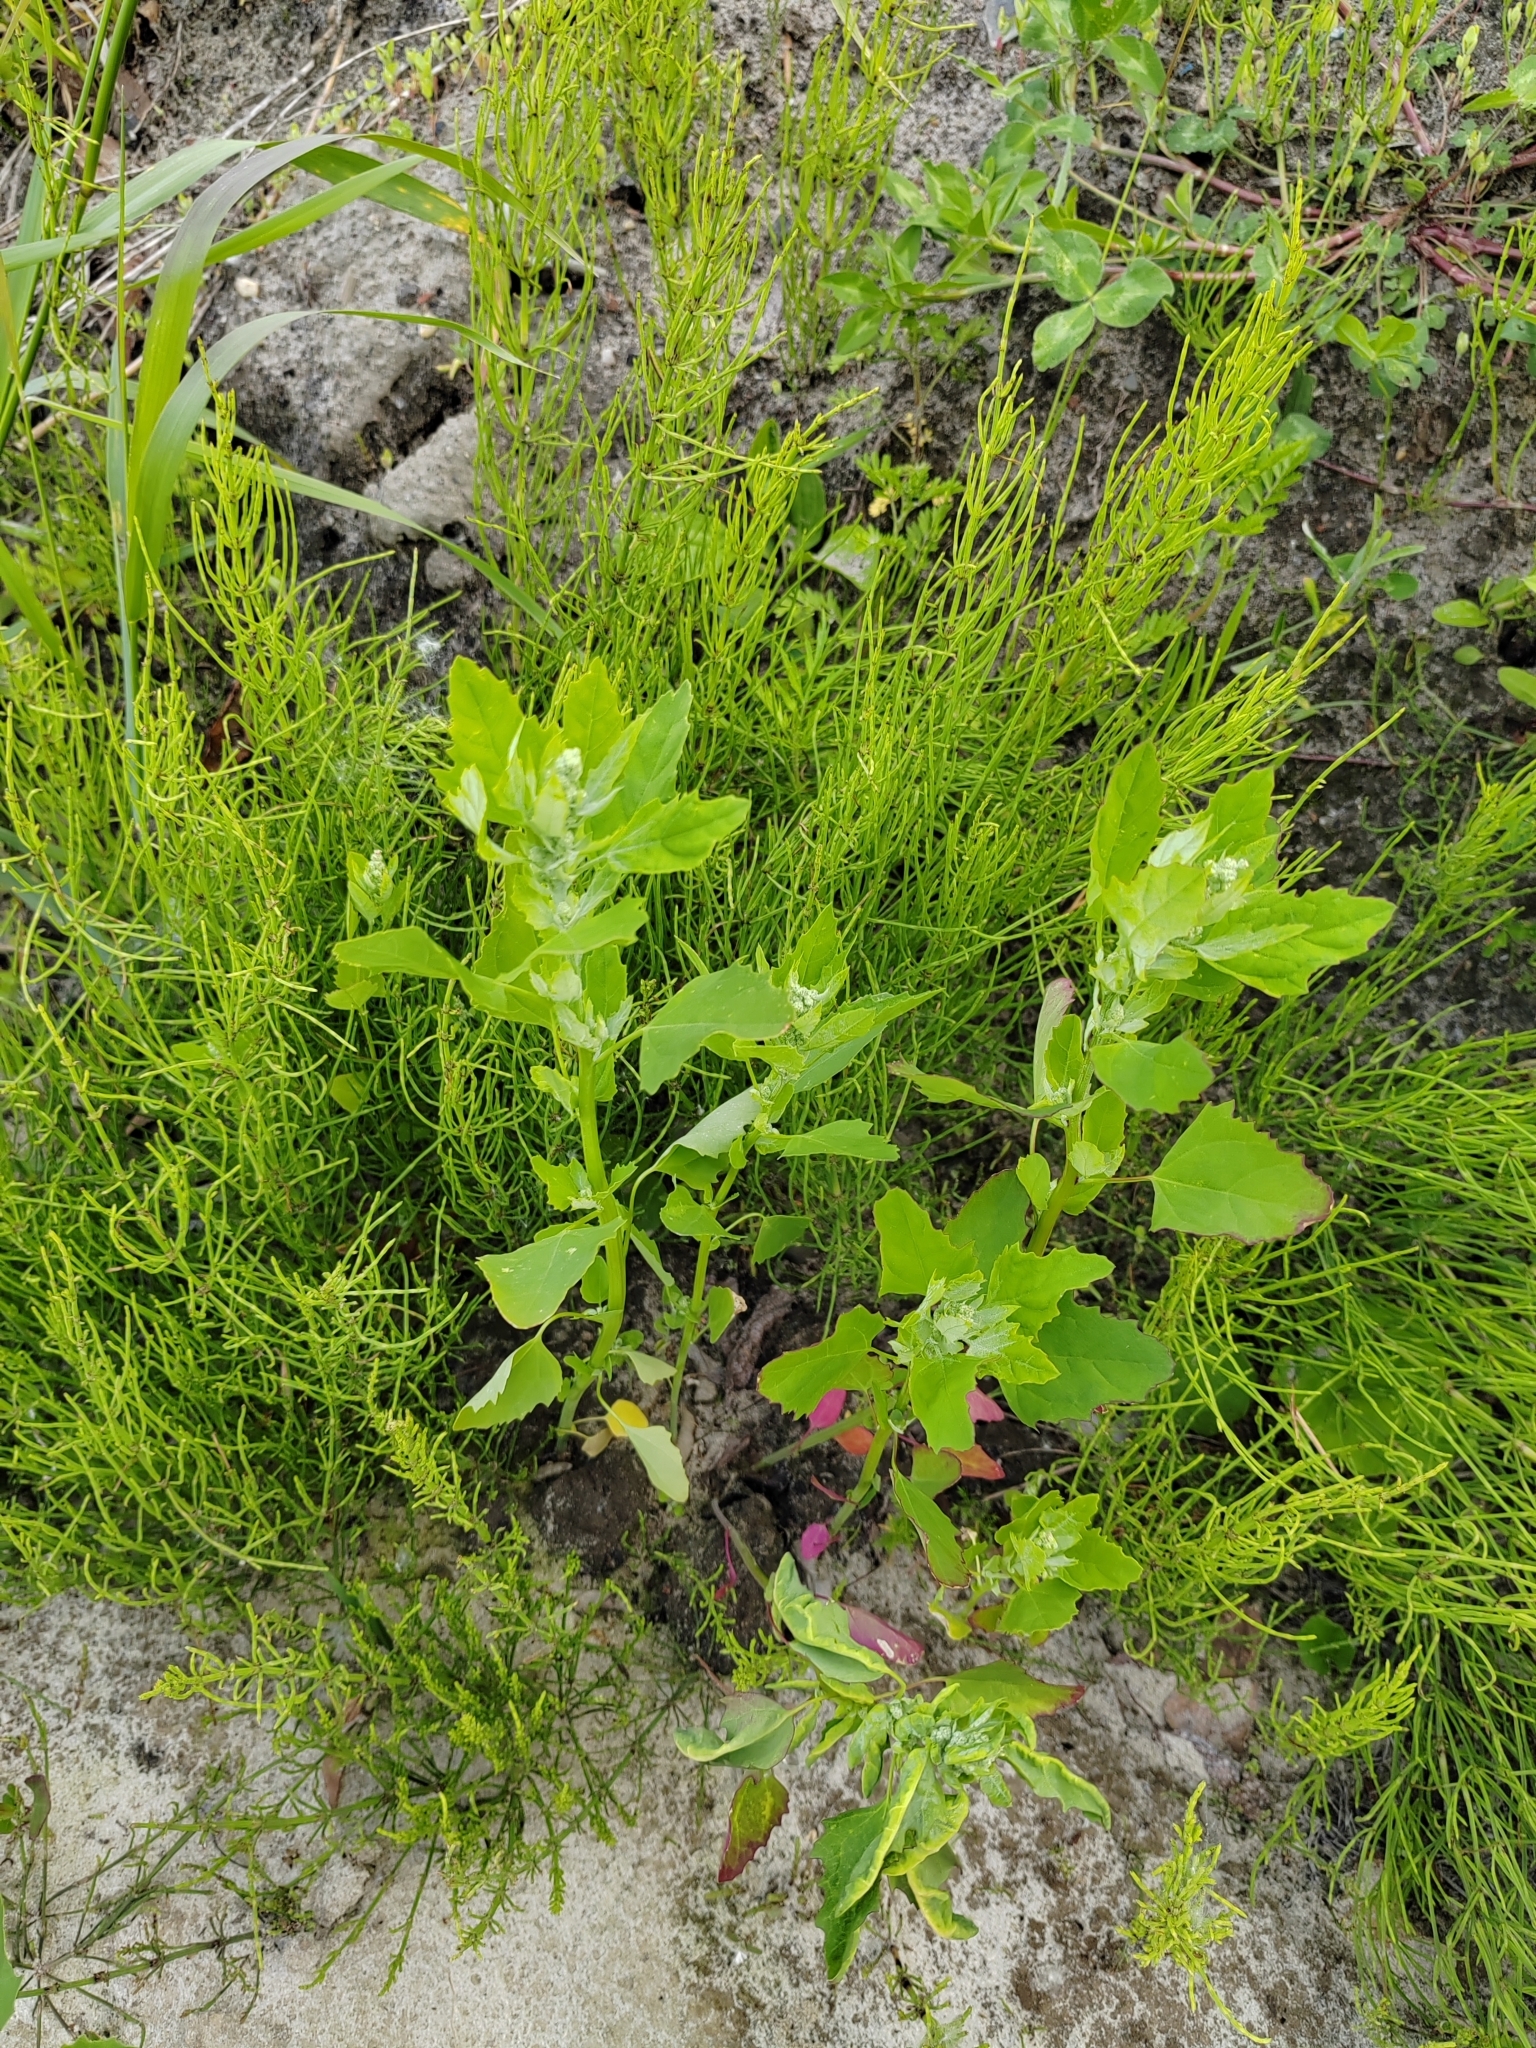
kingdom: Plantae
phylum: Tracheophyta
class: Magnoliopsida
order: Caryophyllales
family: Amaranthaceae
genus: Chenopodium
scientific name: Chenopodium album
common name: Fat-hen
